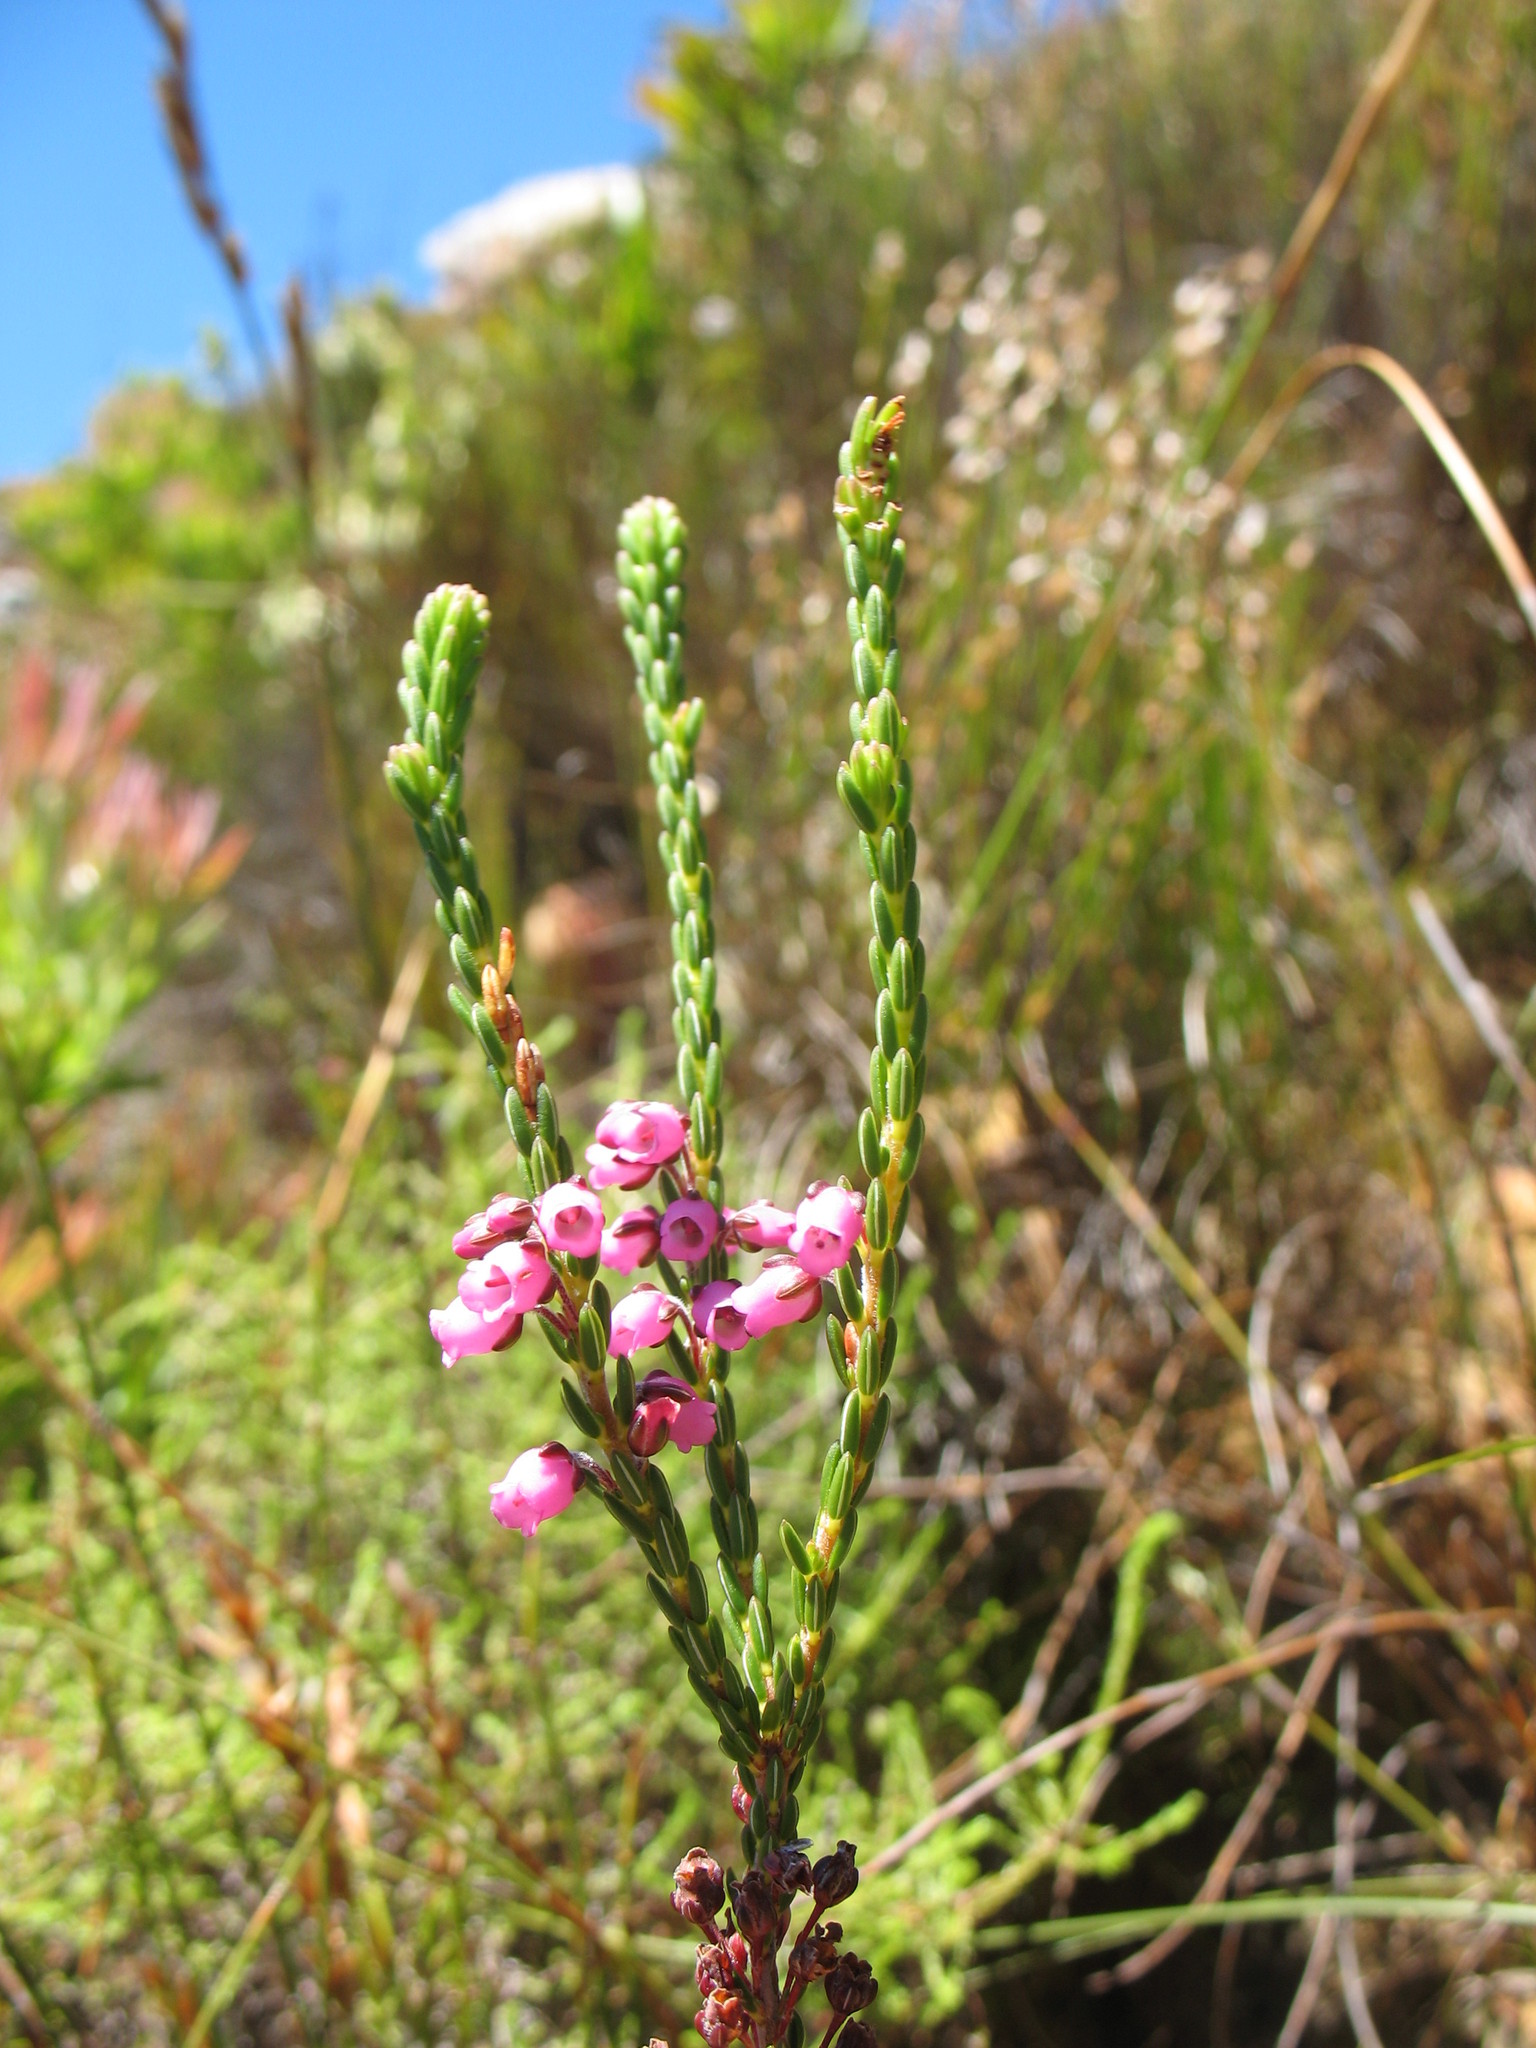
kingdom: Plantae
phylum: Tracheophyta
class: Magnoliopsida
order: Ericales
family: Ericaceae
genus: Erica
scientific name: Erica pulchella
